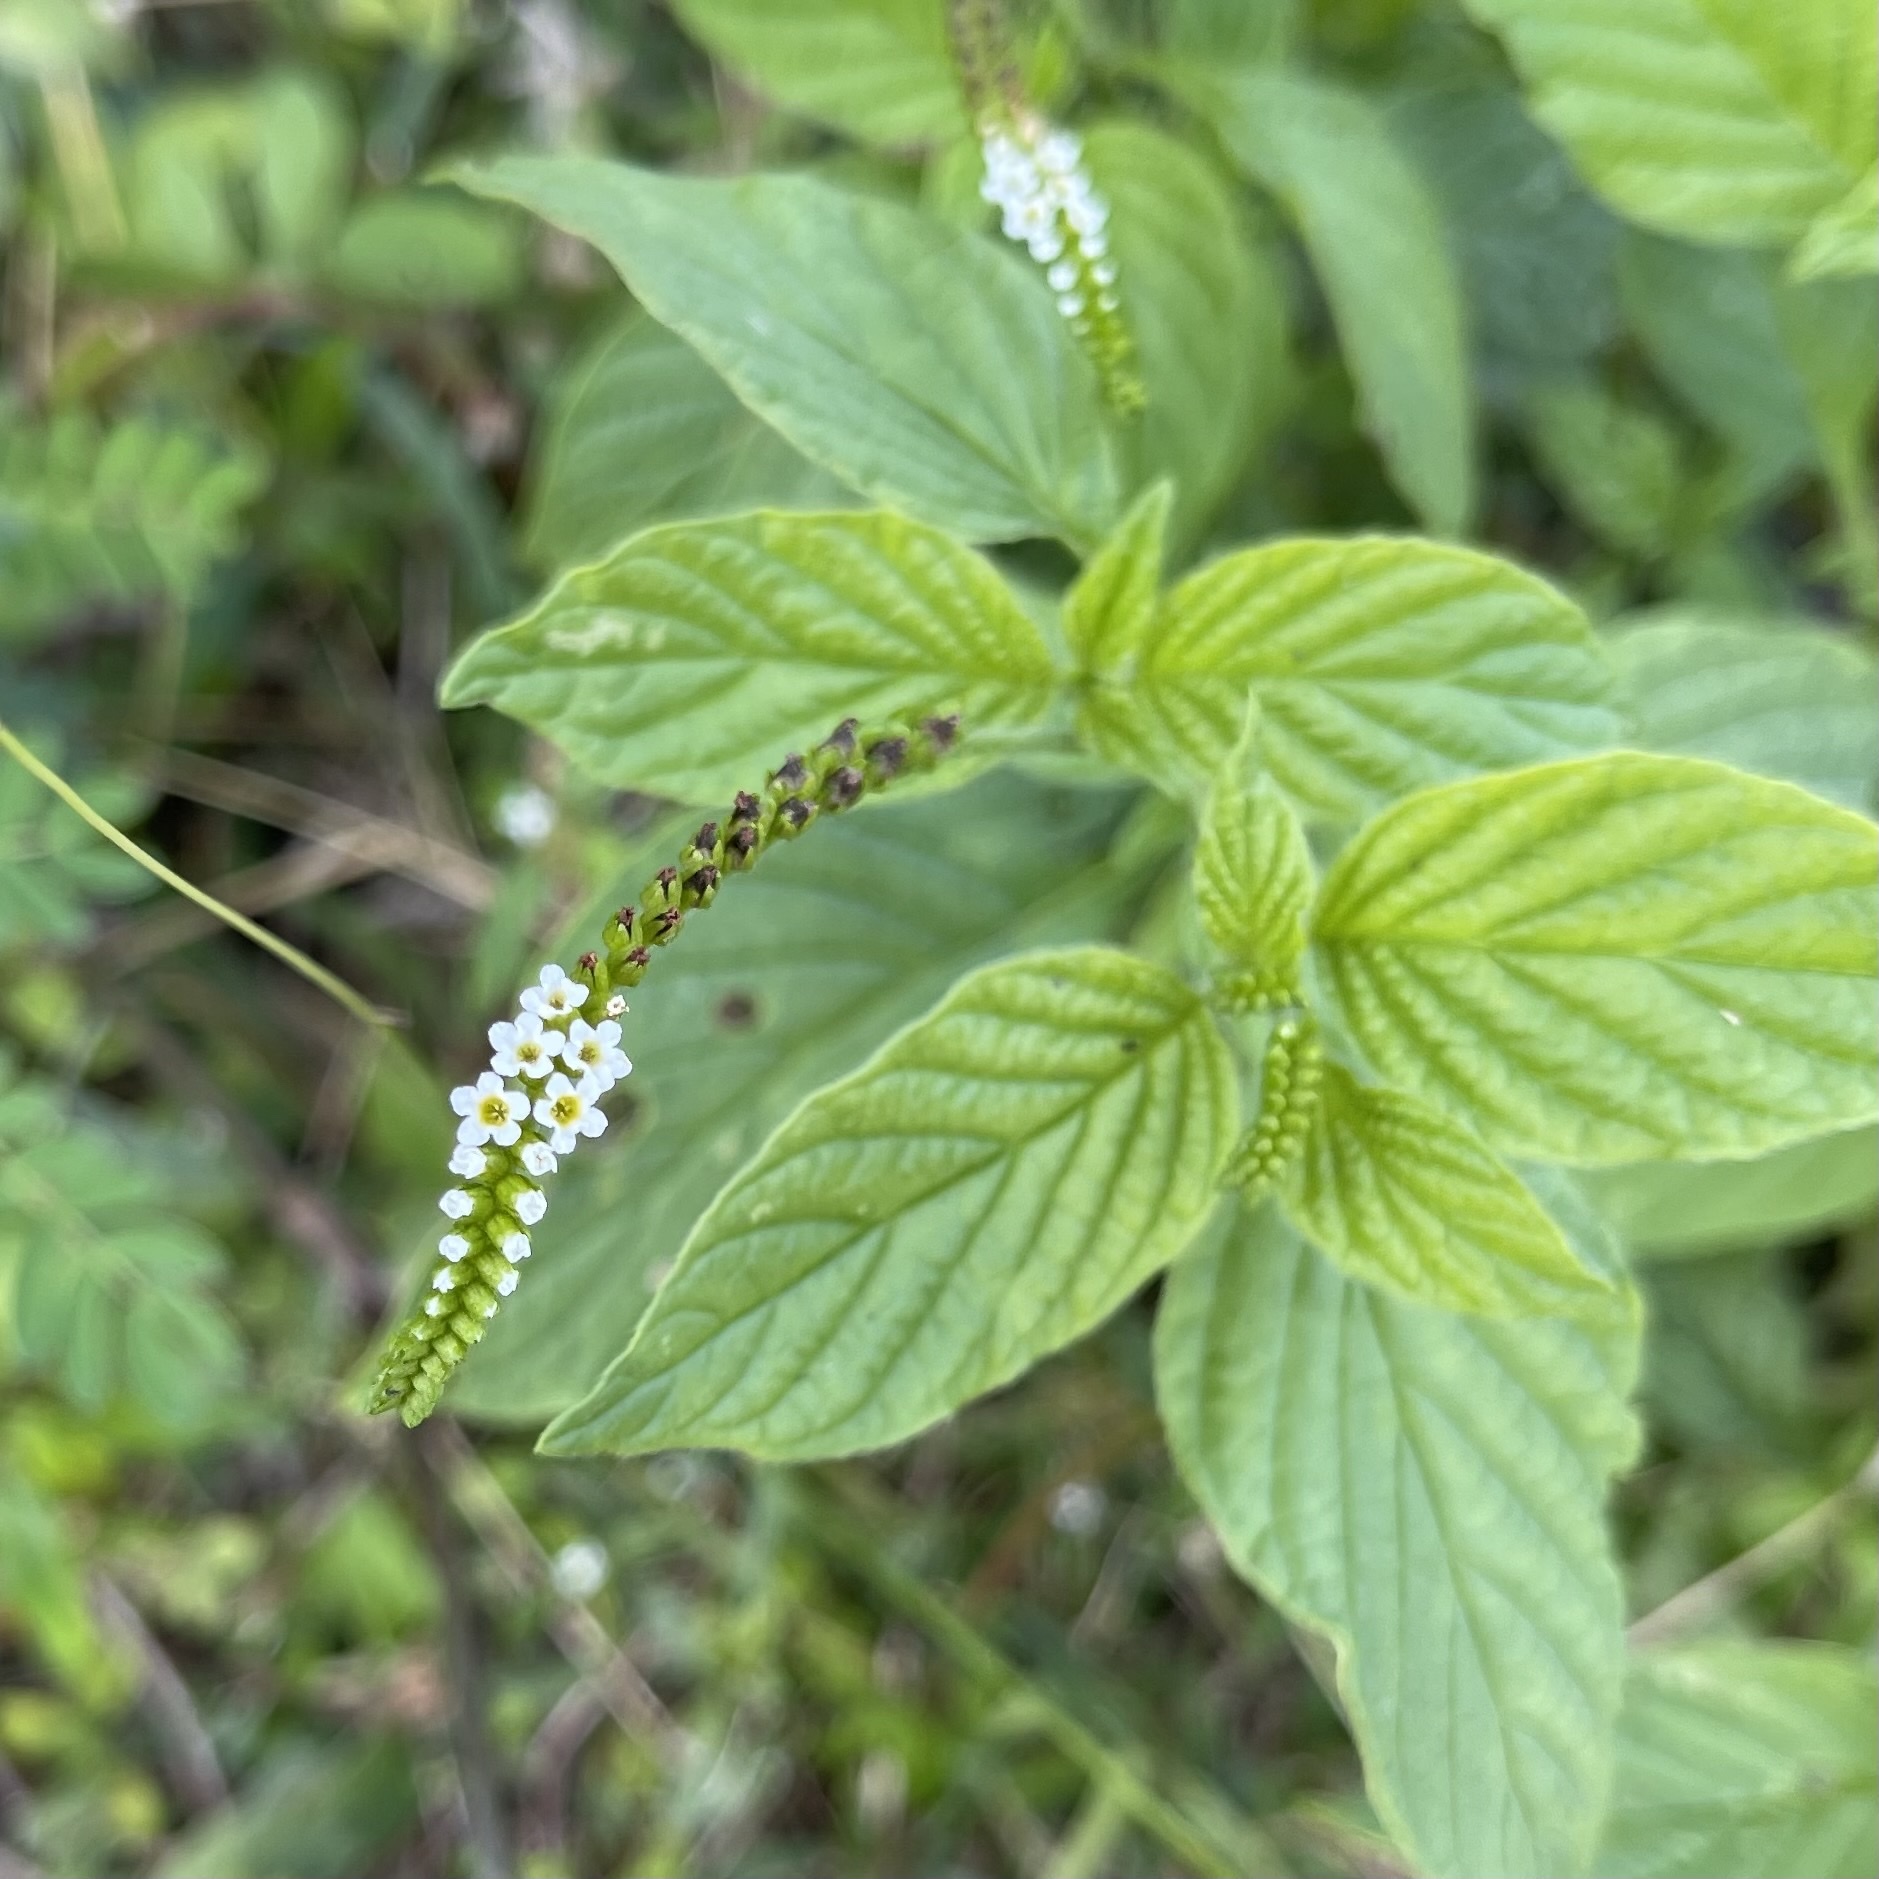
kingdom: Plantae
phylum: Tracheophyta
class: Magnoliopsida
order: Boraginales
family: Heliotropiaceae
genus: Heliotropium
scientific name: Heliotropium angiospermum
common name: Eye bright
